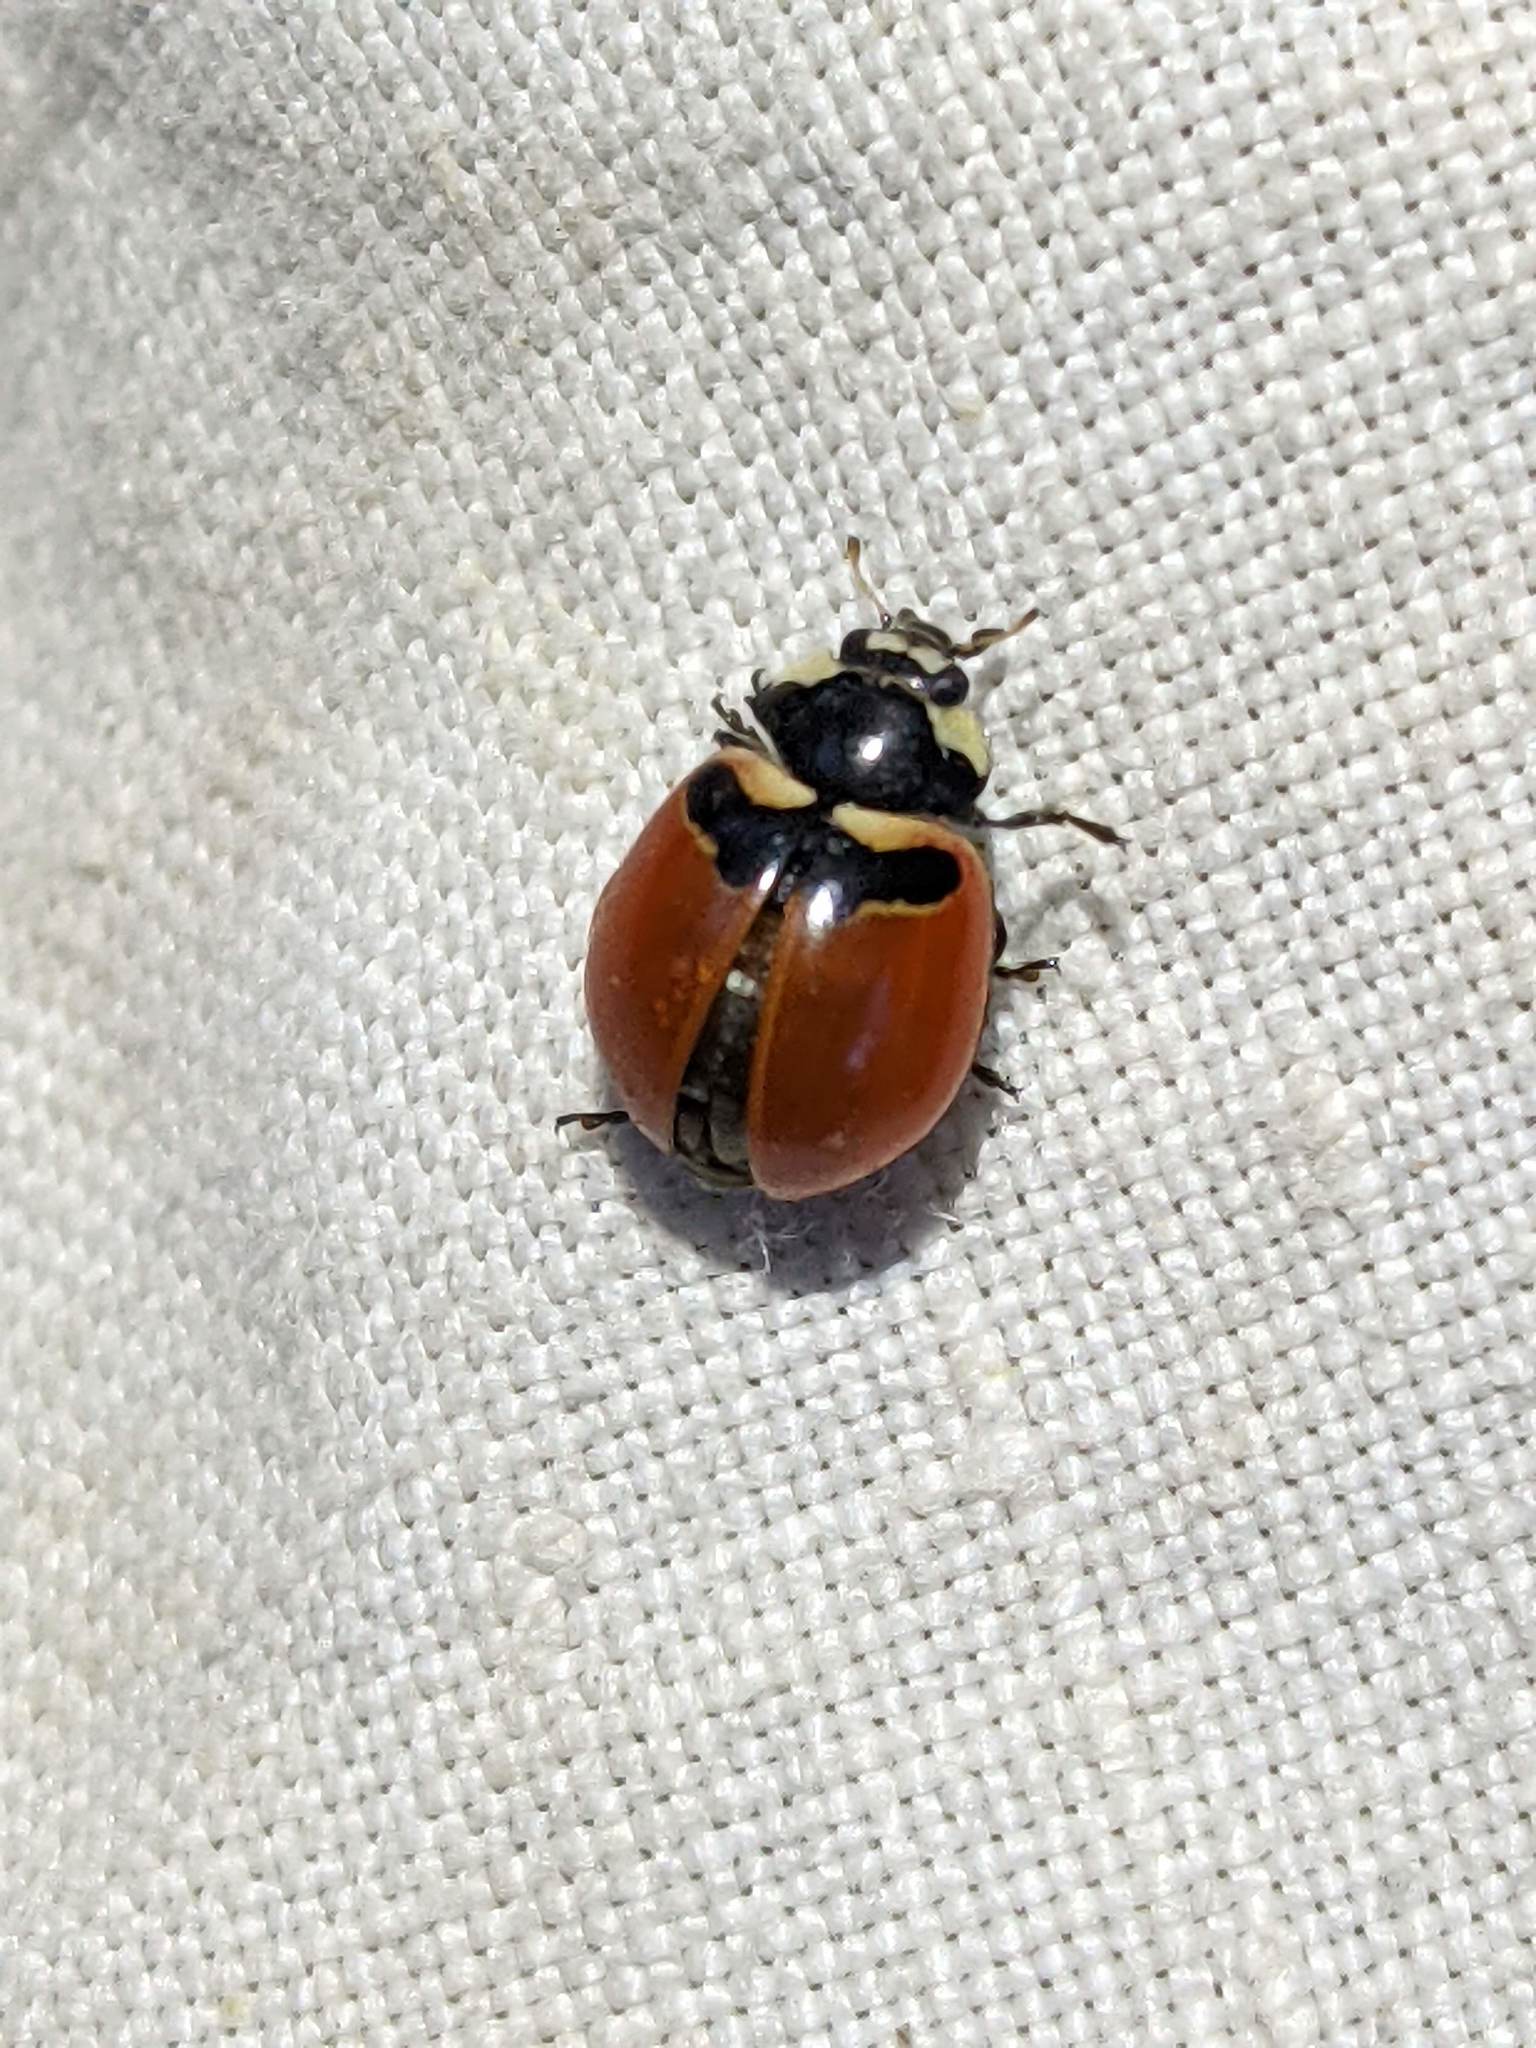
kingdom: Animalia
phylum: Arthropoda
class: Insecta
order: Coleoptera
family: Coccinellidae
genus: Coccinella
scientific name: Coccinella trifasciata
